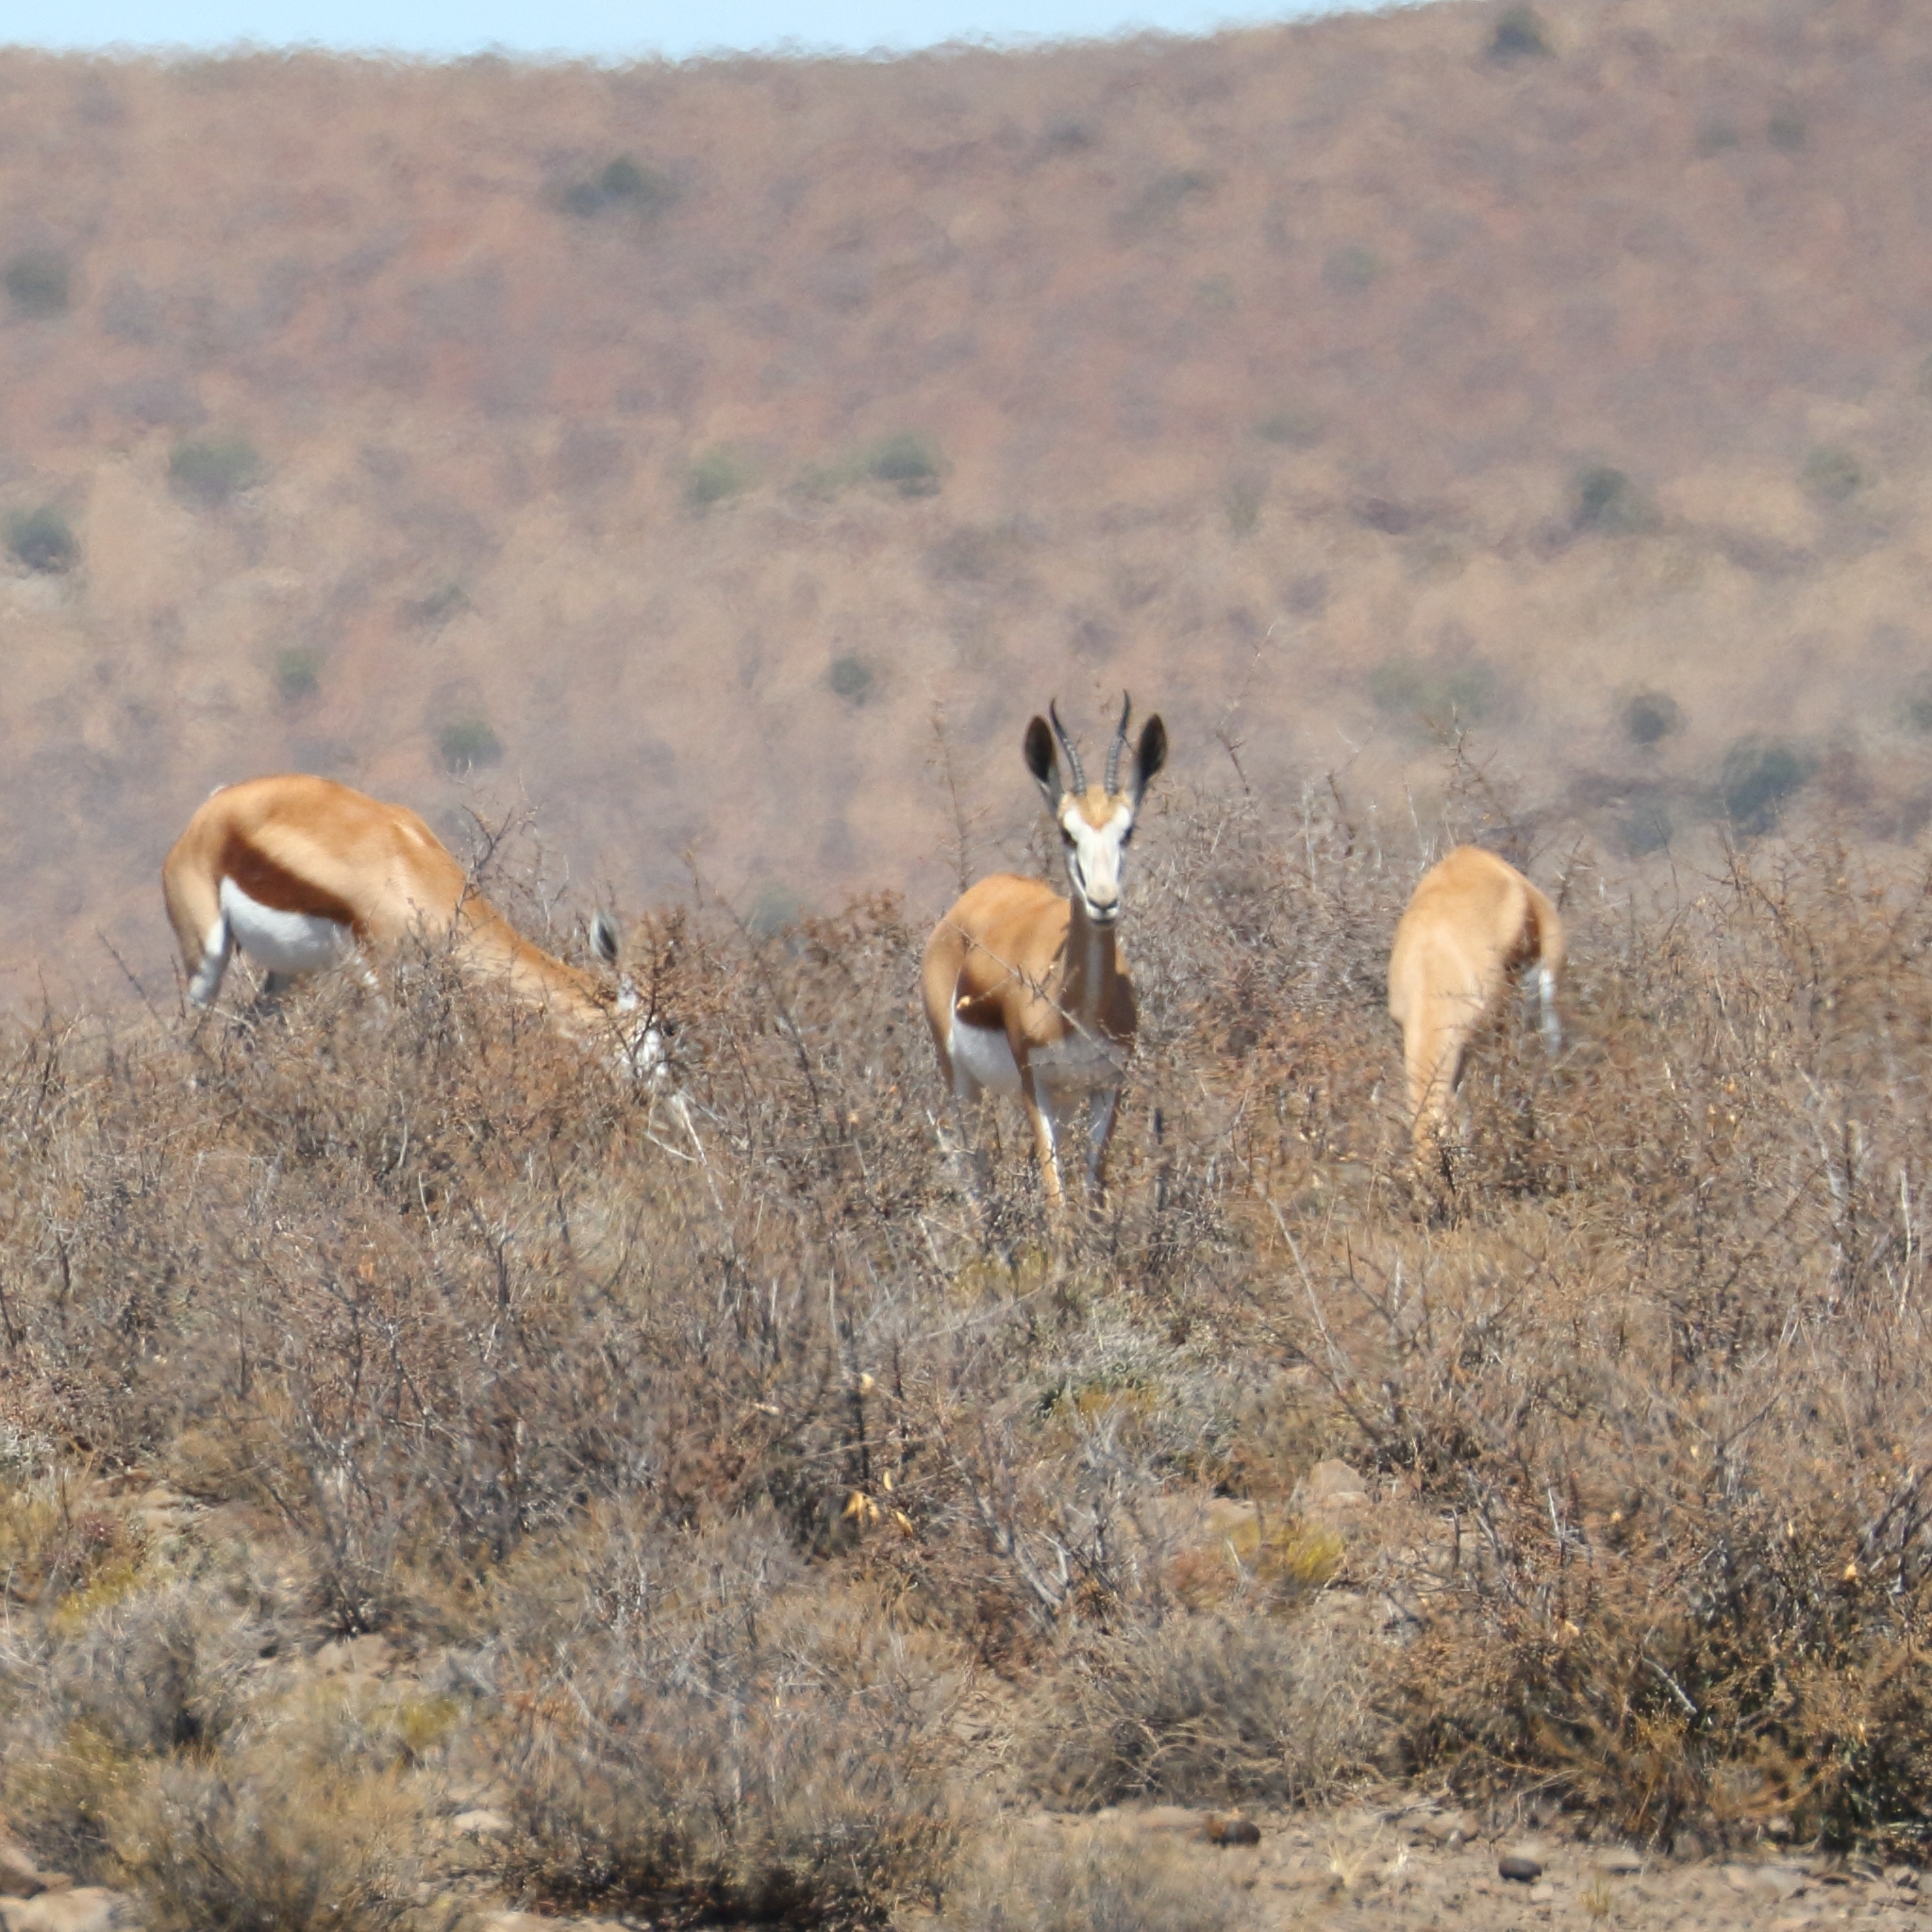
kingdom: Animalia
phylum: Chordata
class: Mammalia
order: Artiodactyla
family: Bovidae
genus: Antidorcas
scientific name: Antidorcas marsupialis
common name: Springbok
